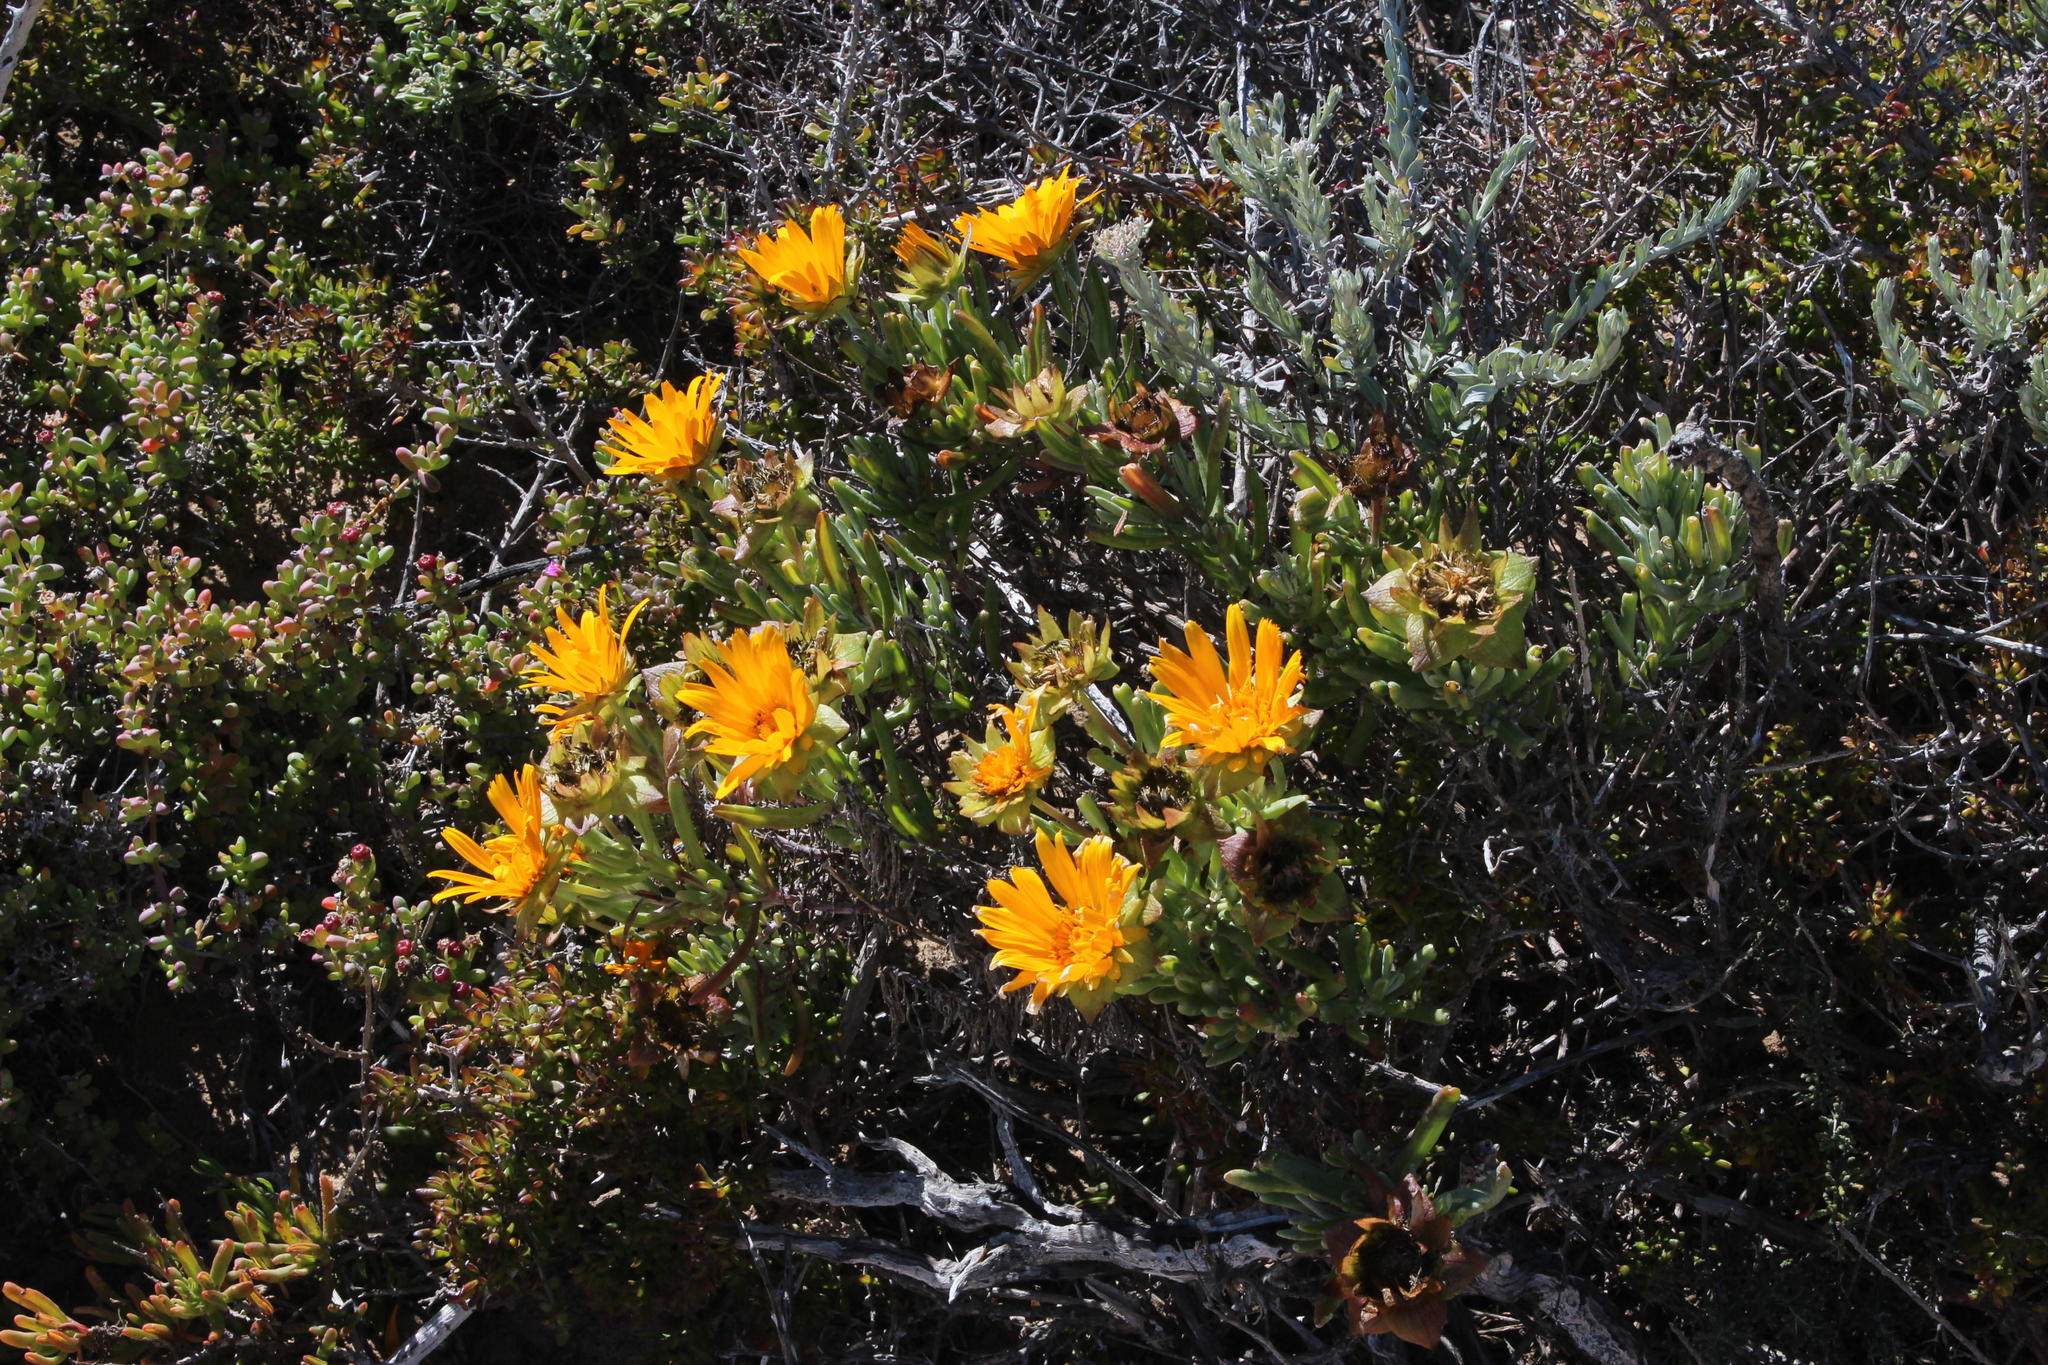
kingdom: Plantae
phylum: Tracheophyta
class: Magnoliopsida
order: Asterales
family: Asteraceae
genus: Didelta
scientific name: Didelta carnosa
